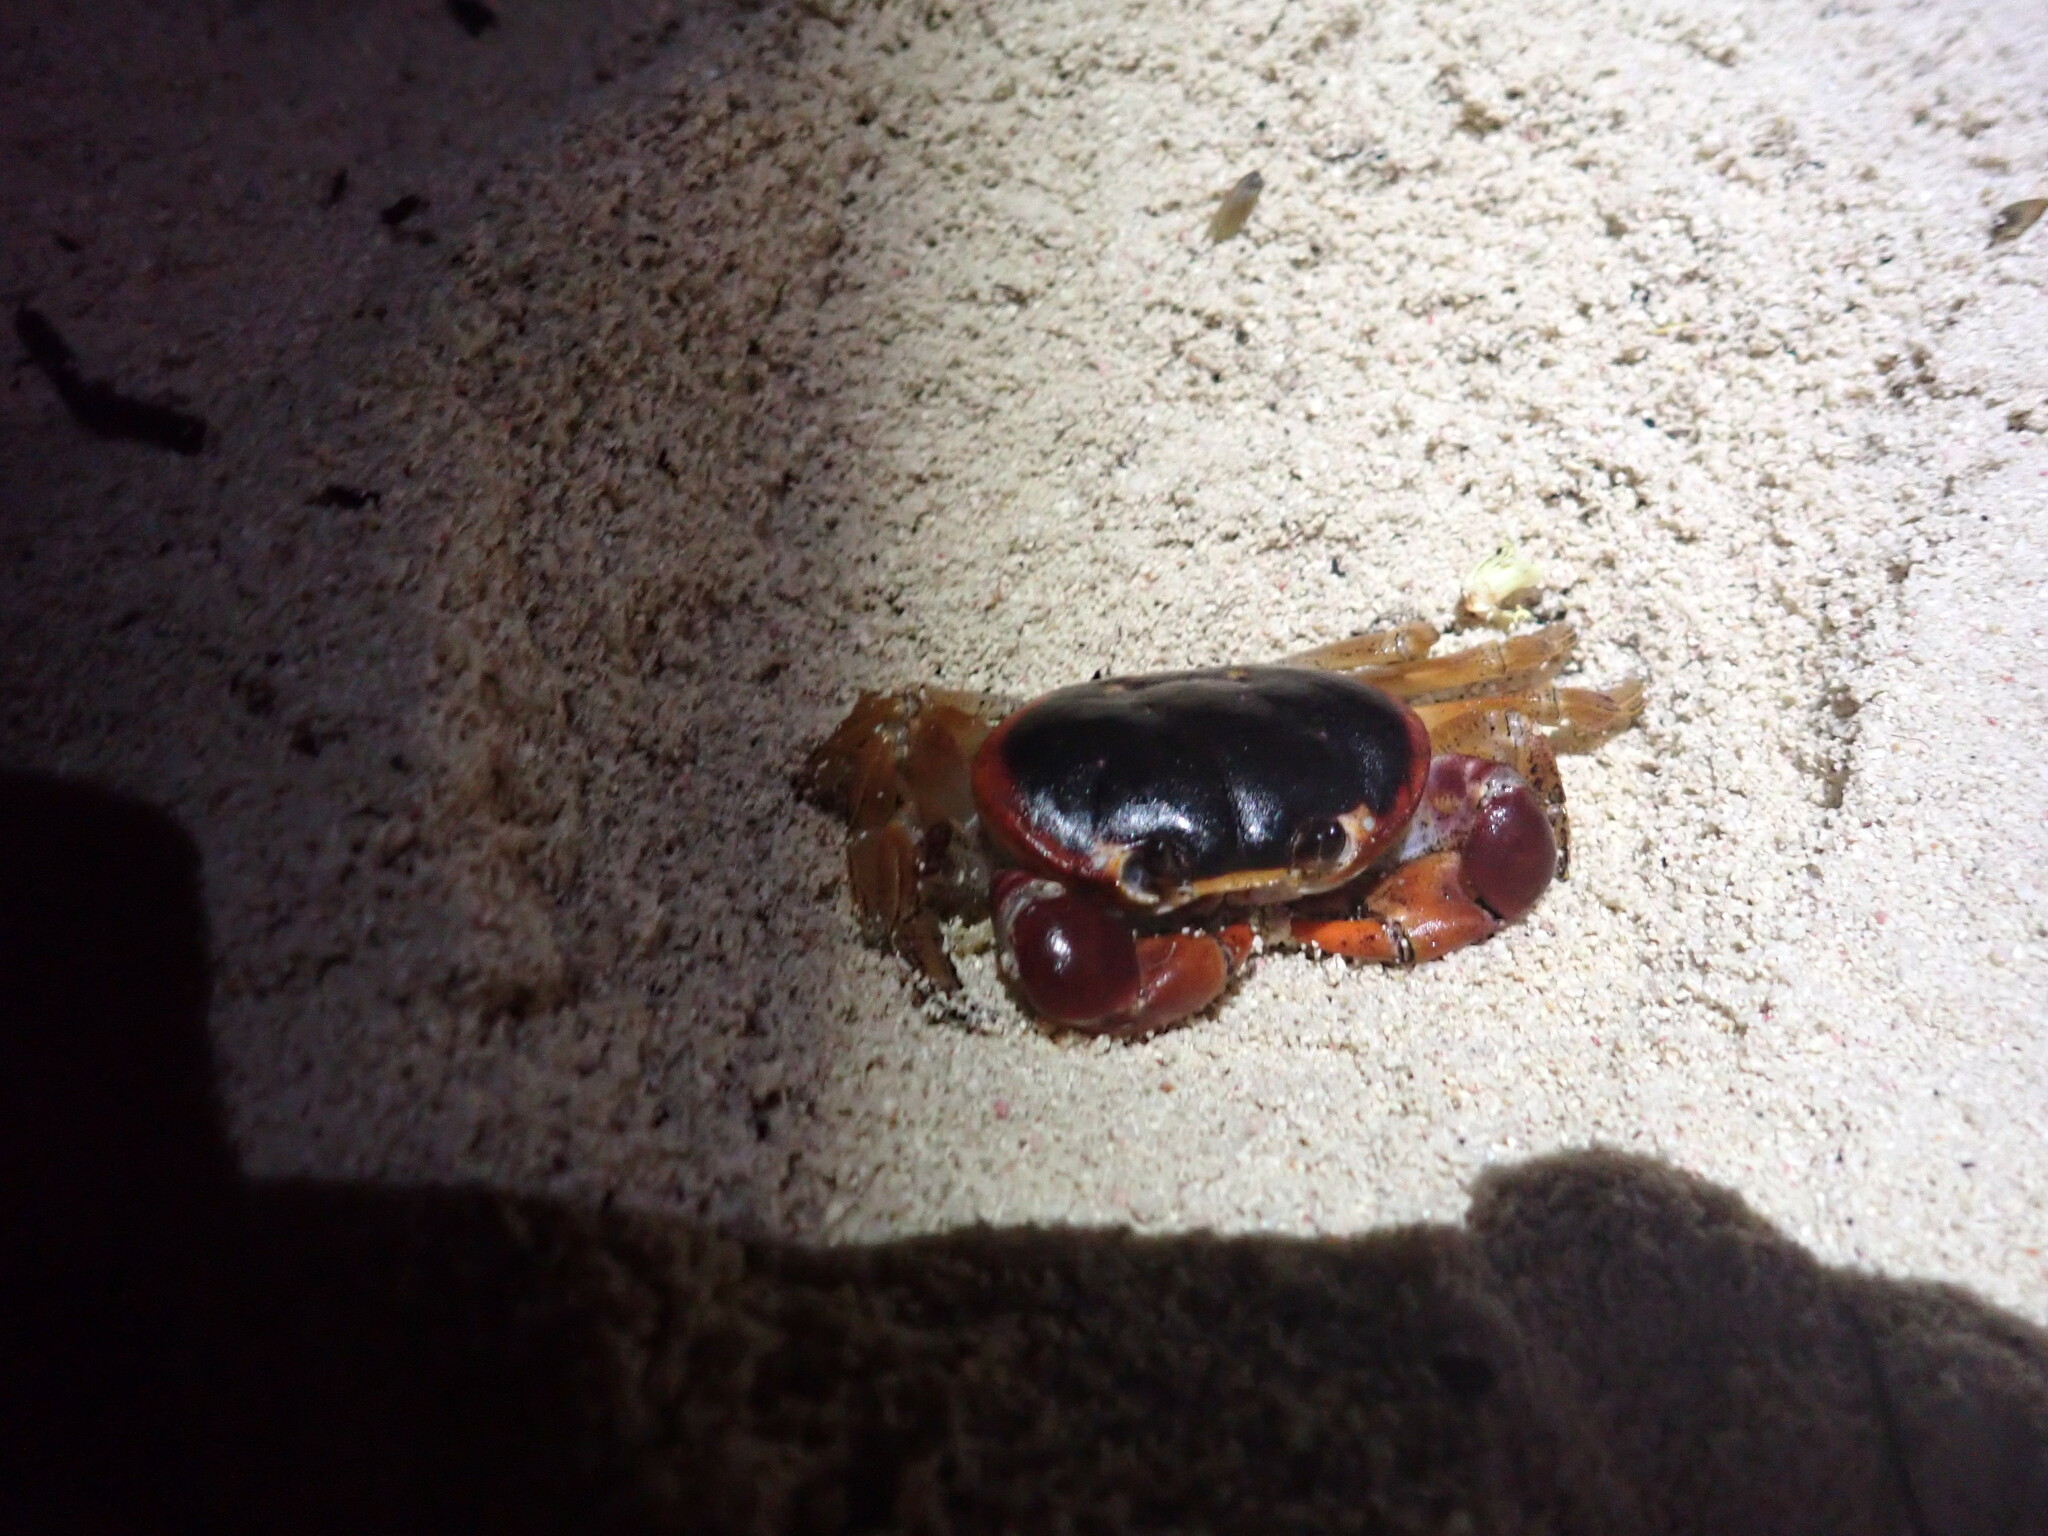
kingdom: Animalia
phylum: Arthropoda
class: Malacostraca
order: Decapoda
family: Gecarcinidae
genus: Gecarcinus
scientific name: Gecarcinus lateralis
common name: Bermuda land crab
